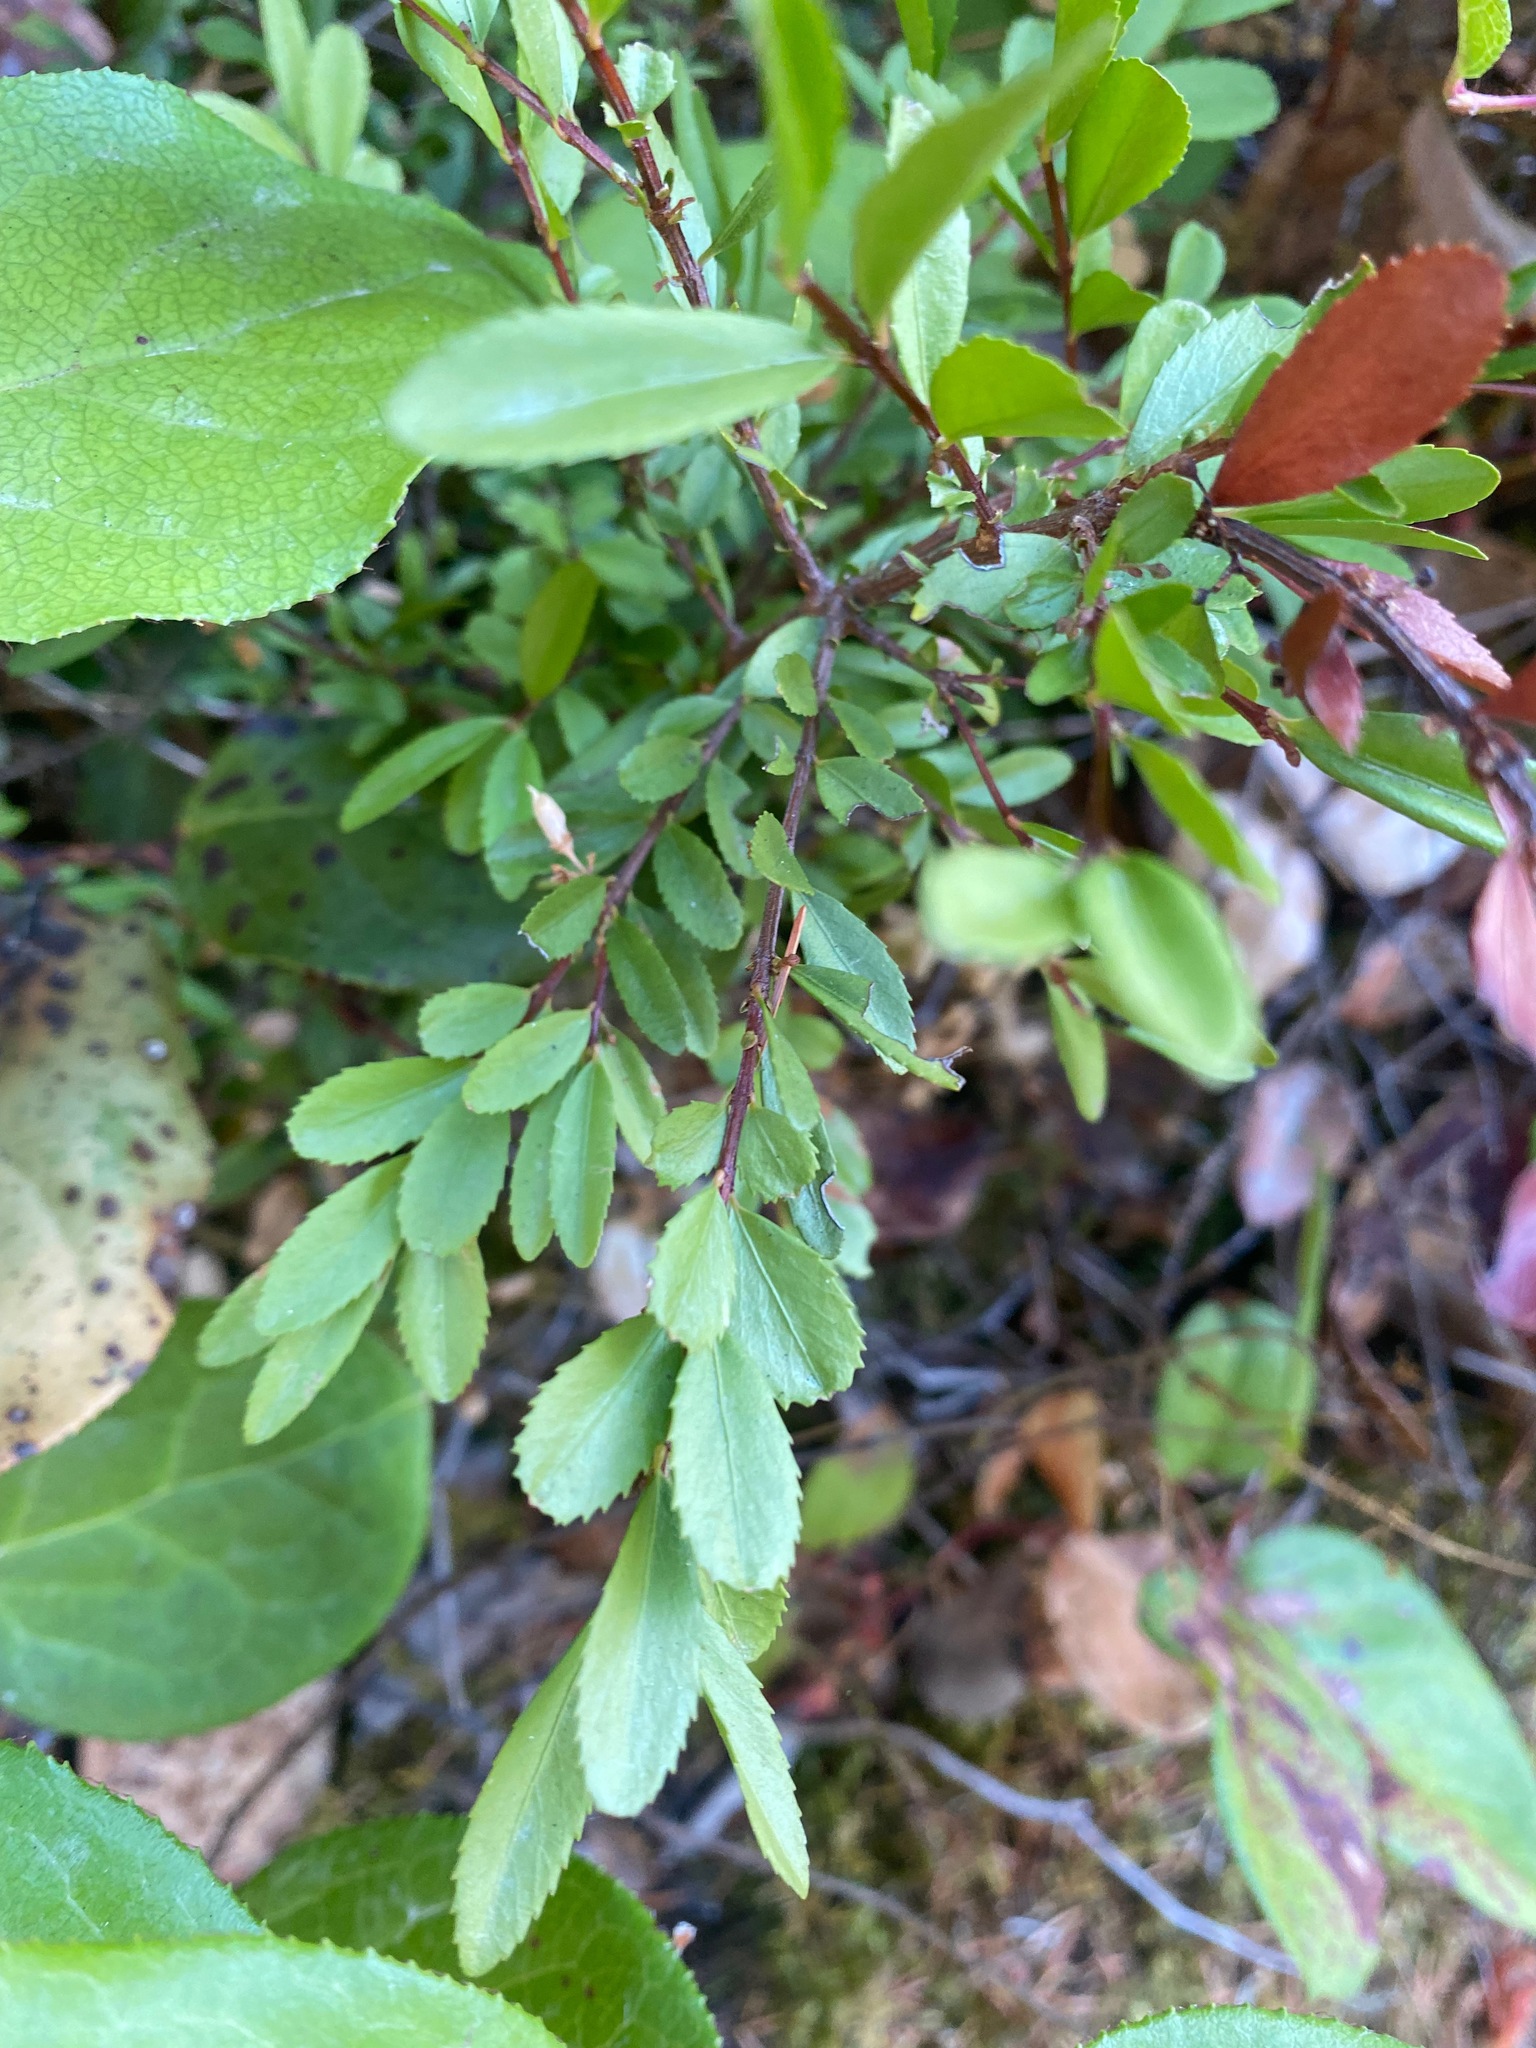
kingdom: Plantae
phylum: Tracheophyta
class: Magnoliopsida
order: Celastrales
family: Celastraceae
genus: Paxistima
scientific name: Paxistima myrsinites
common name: Mountain-lover
